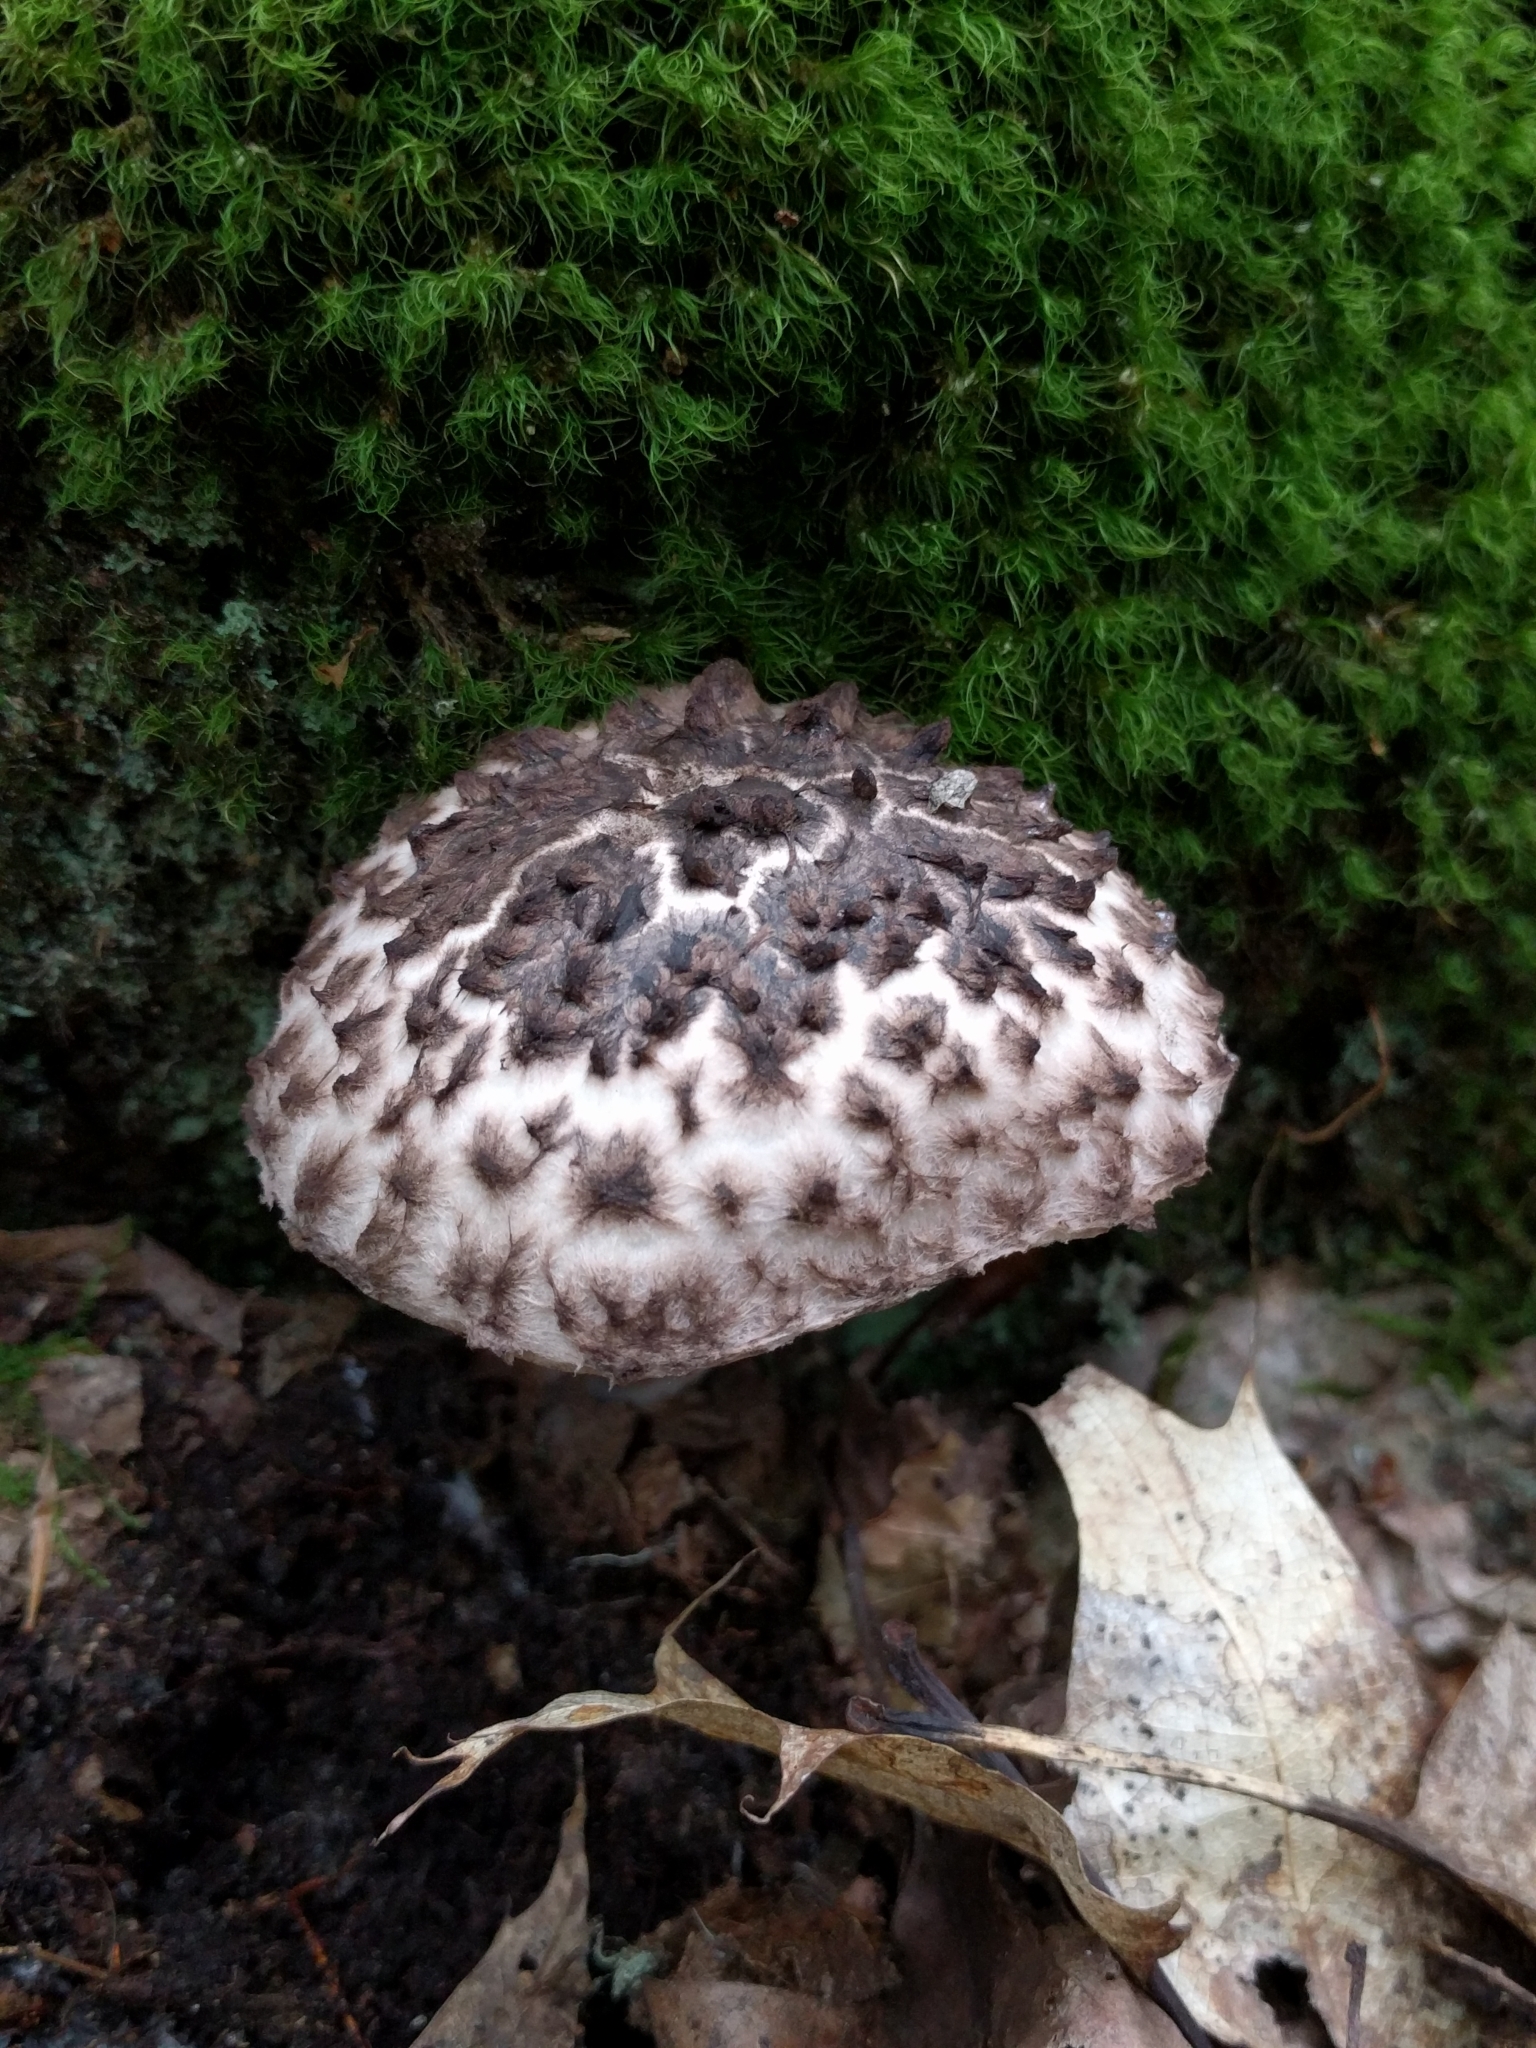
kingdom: Fungi
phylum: Basidiomycota
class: Agaricomycetes
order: Boletales
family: Boletaceae
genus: Strobilomyces
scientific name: Strobilomyces strobilaceus
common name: Old man of the woods
